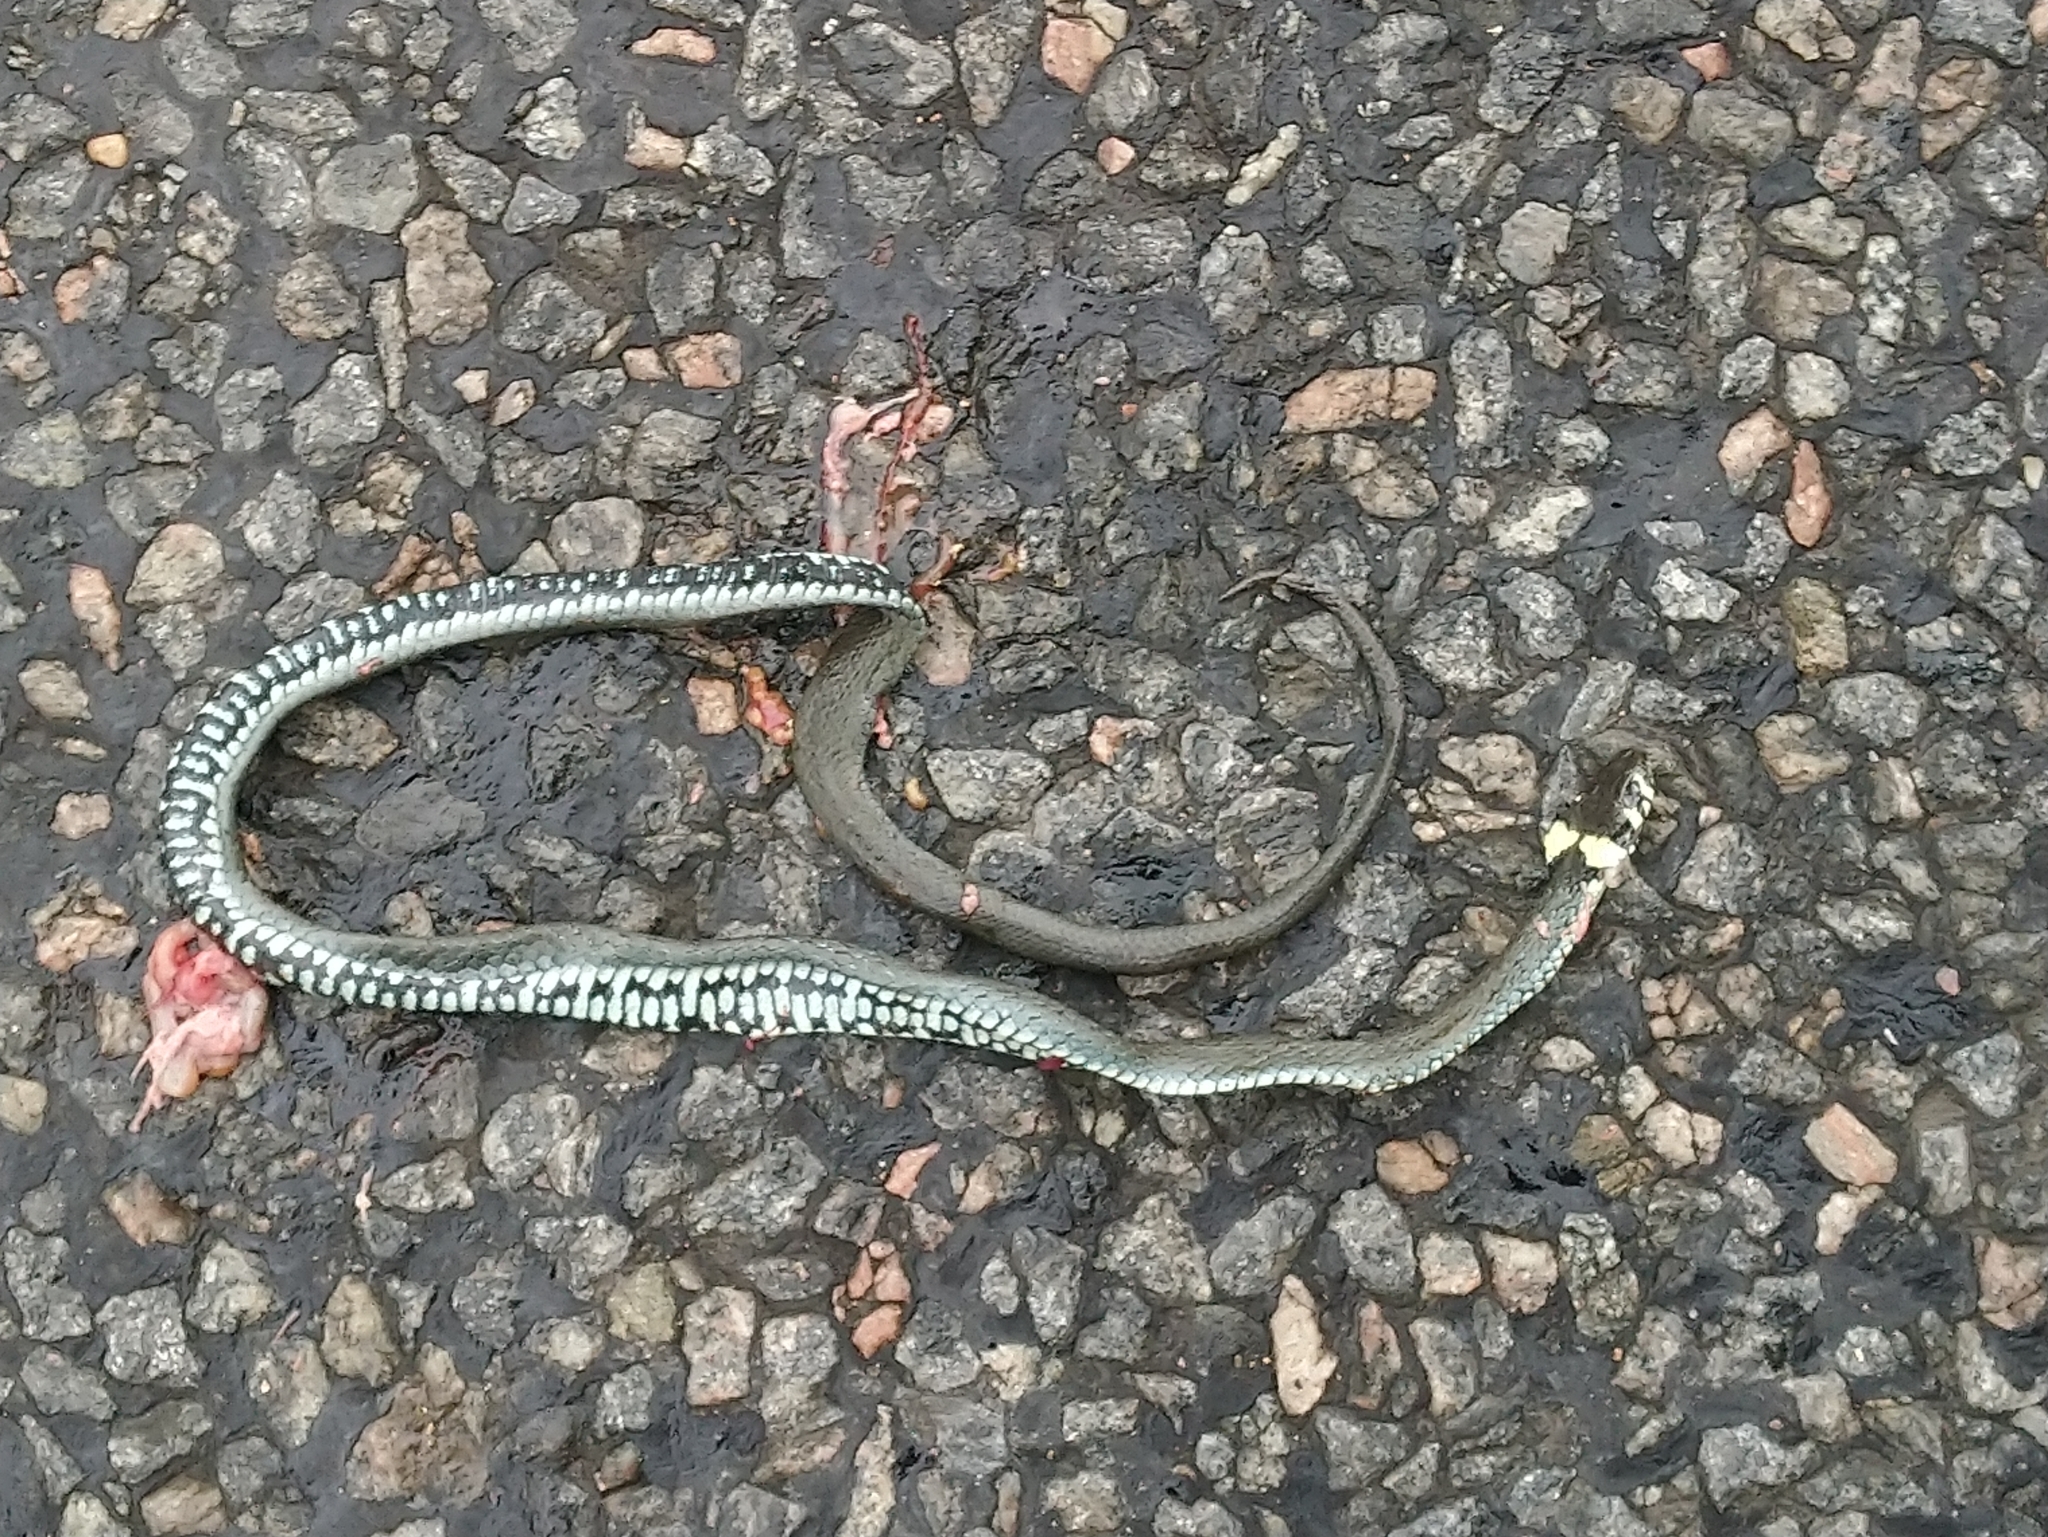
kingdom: Animalia
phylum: Chordata
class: Squamata
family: Colubridae
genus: Natrix
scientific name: Natrix natrix
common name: Grass snake
